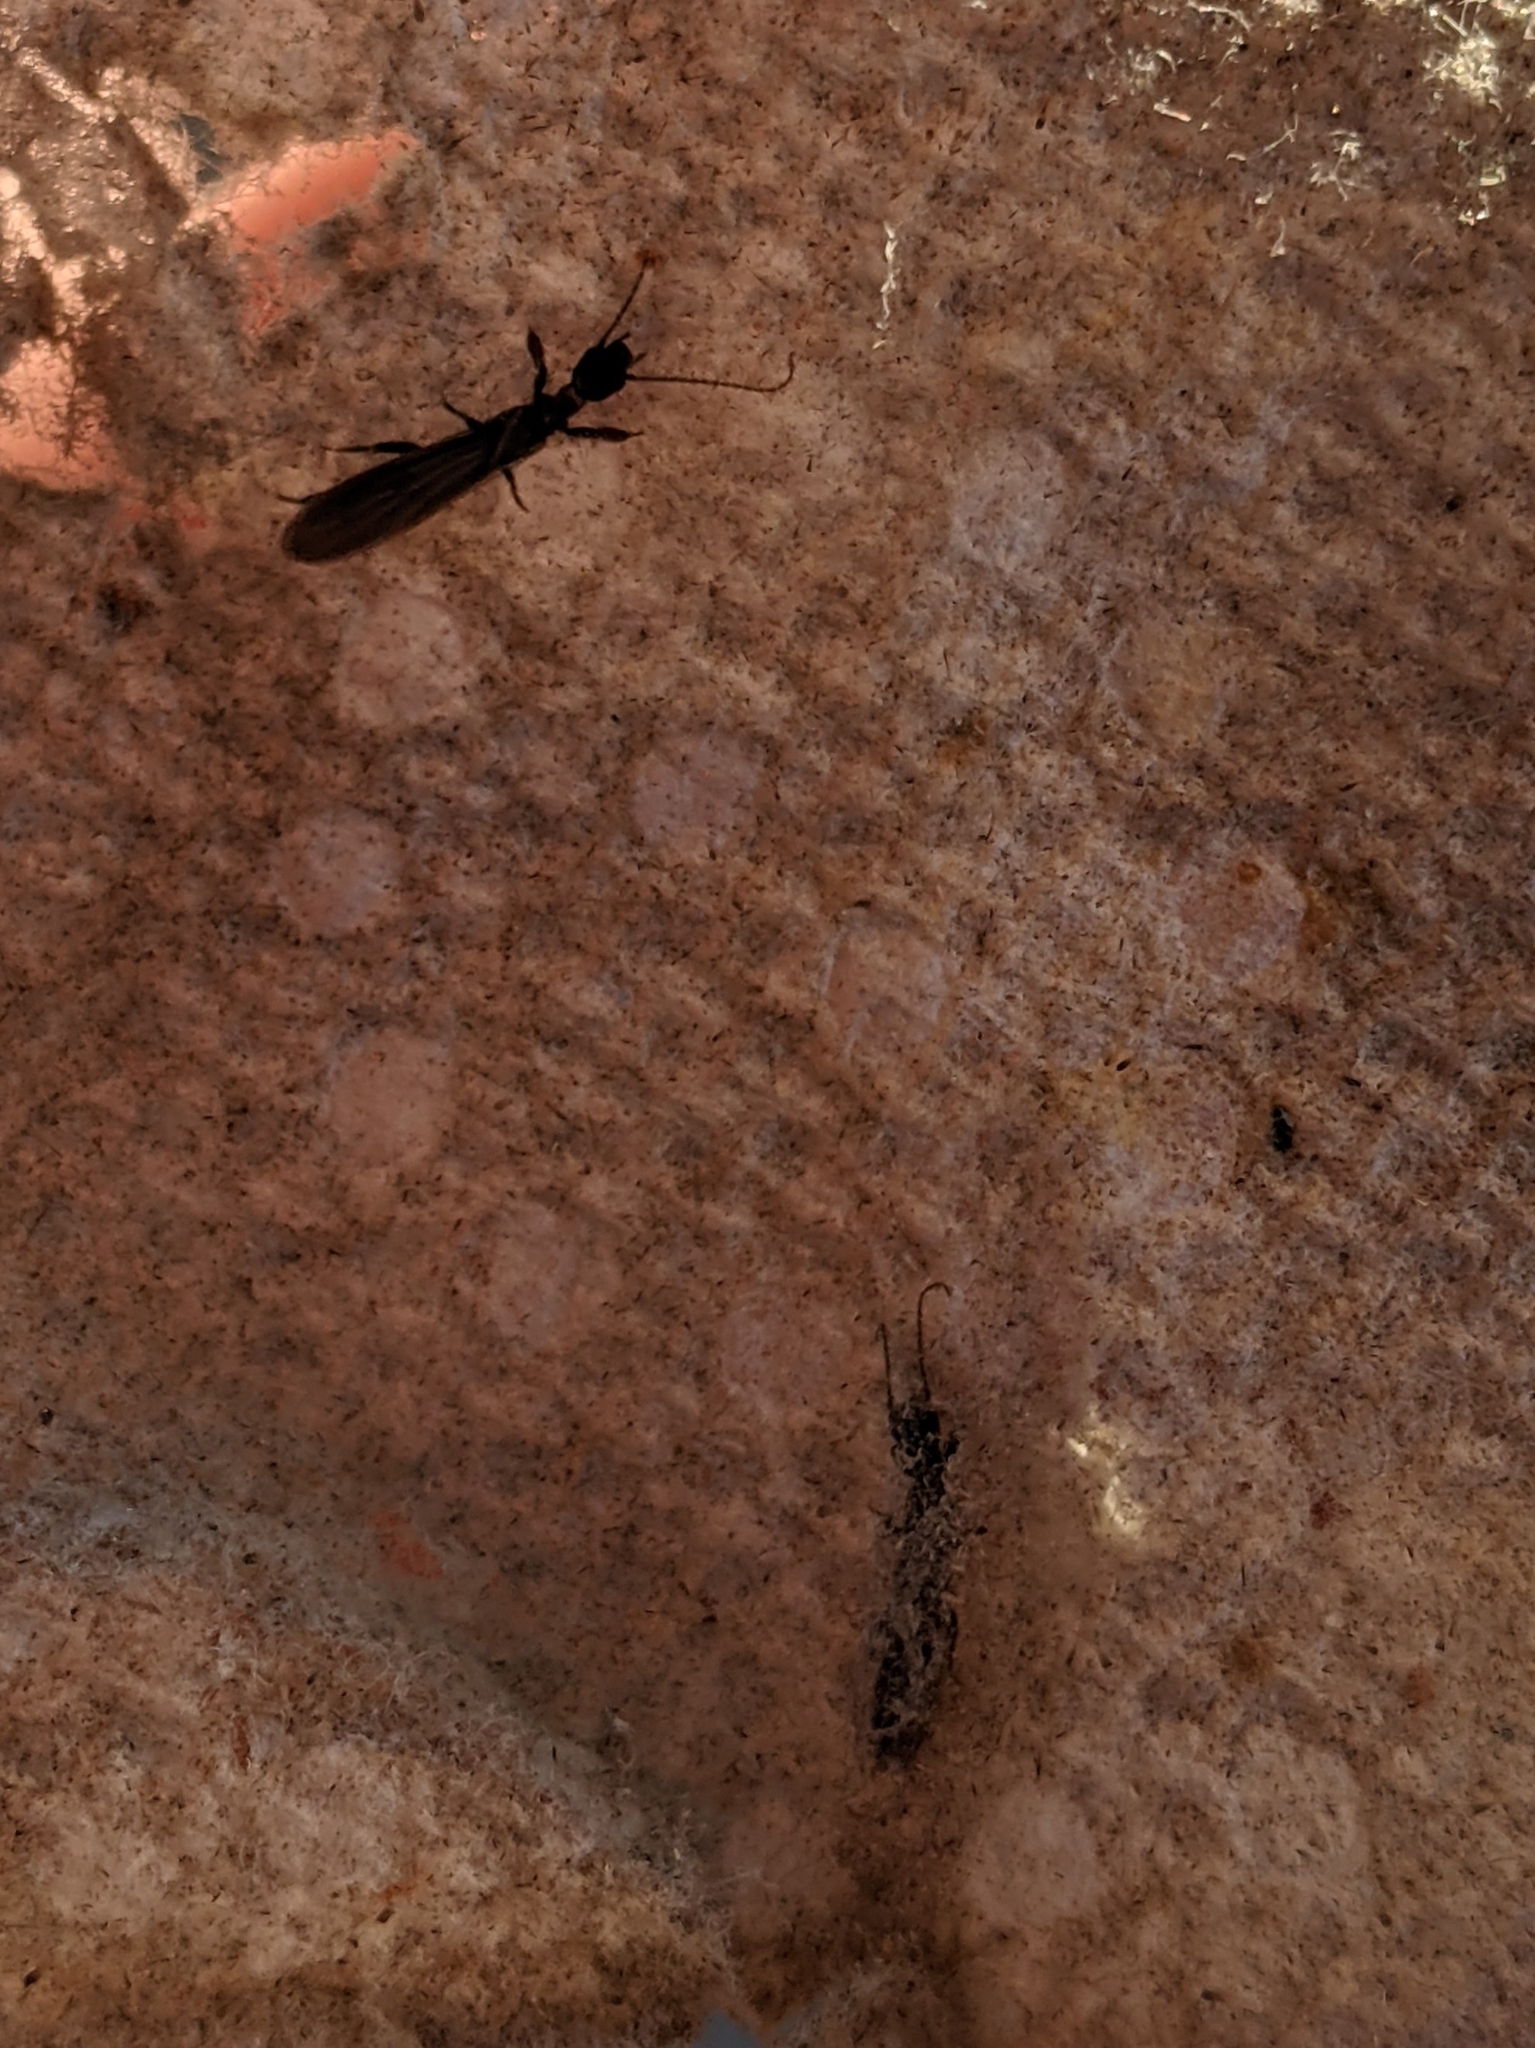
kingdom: Animalia
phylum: Arthropoda
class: Insecta
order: Embioptera
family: Oligotomidae
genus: Oligotoma
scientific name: Oligotoma nigra
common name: Black webspinner
